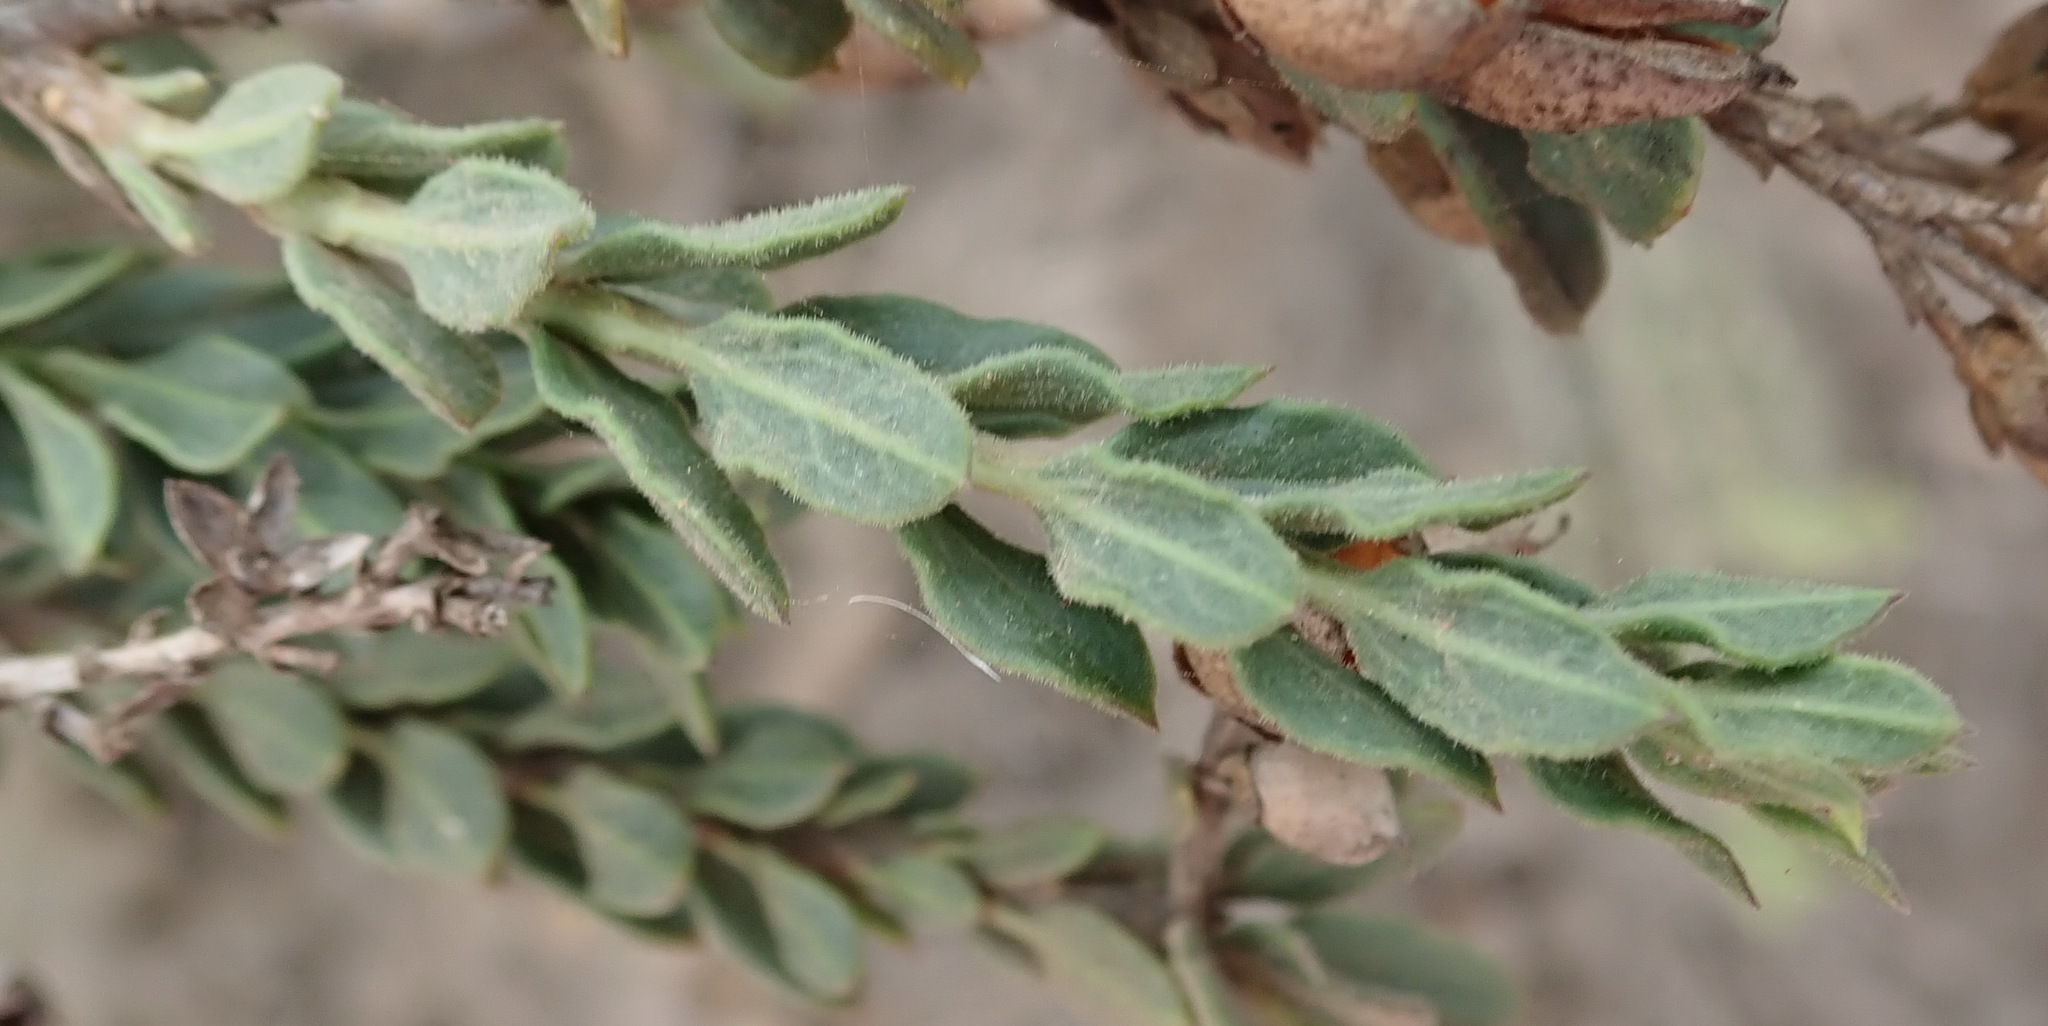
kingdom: Plantae
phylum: Tracheophyta
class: Magnoliopsida
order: Lamiales
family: Scrophulariaceae
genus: Freylinia
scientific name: Freylinia undulata
